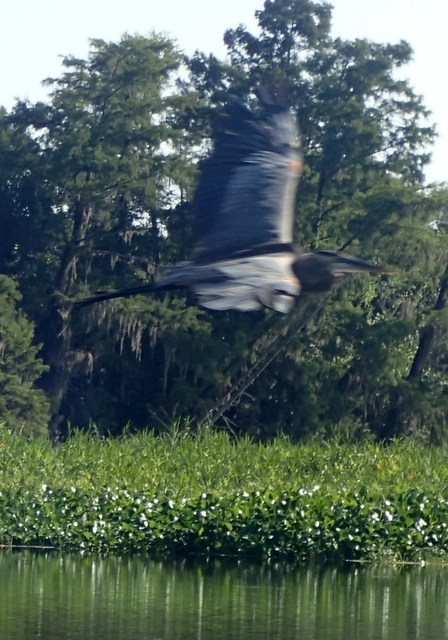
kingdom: Animalia
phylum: Chordata
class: Aves
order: Pelecaniformes
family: Ardeidae
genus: Ardea
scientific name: Ardea herodias
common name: Great blue heron
